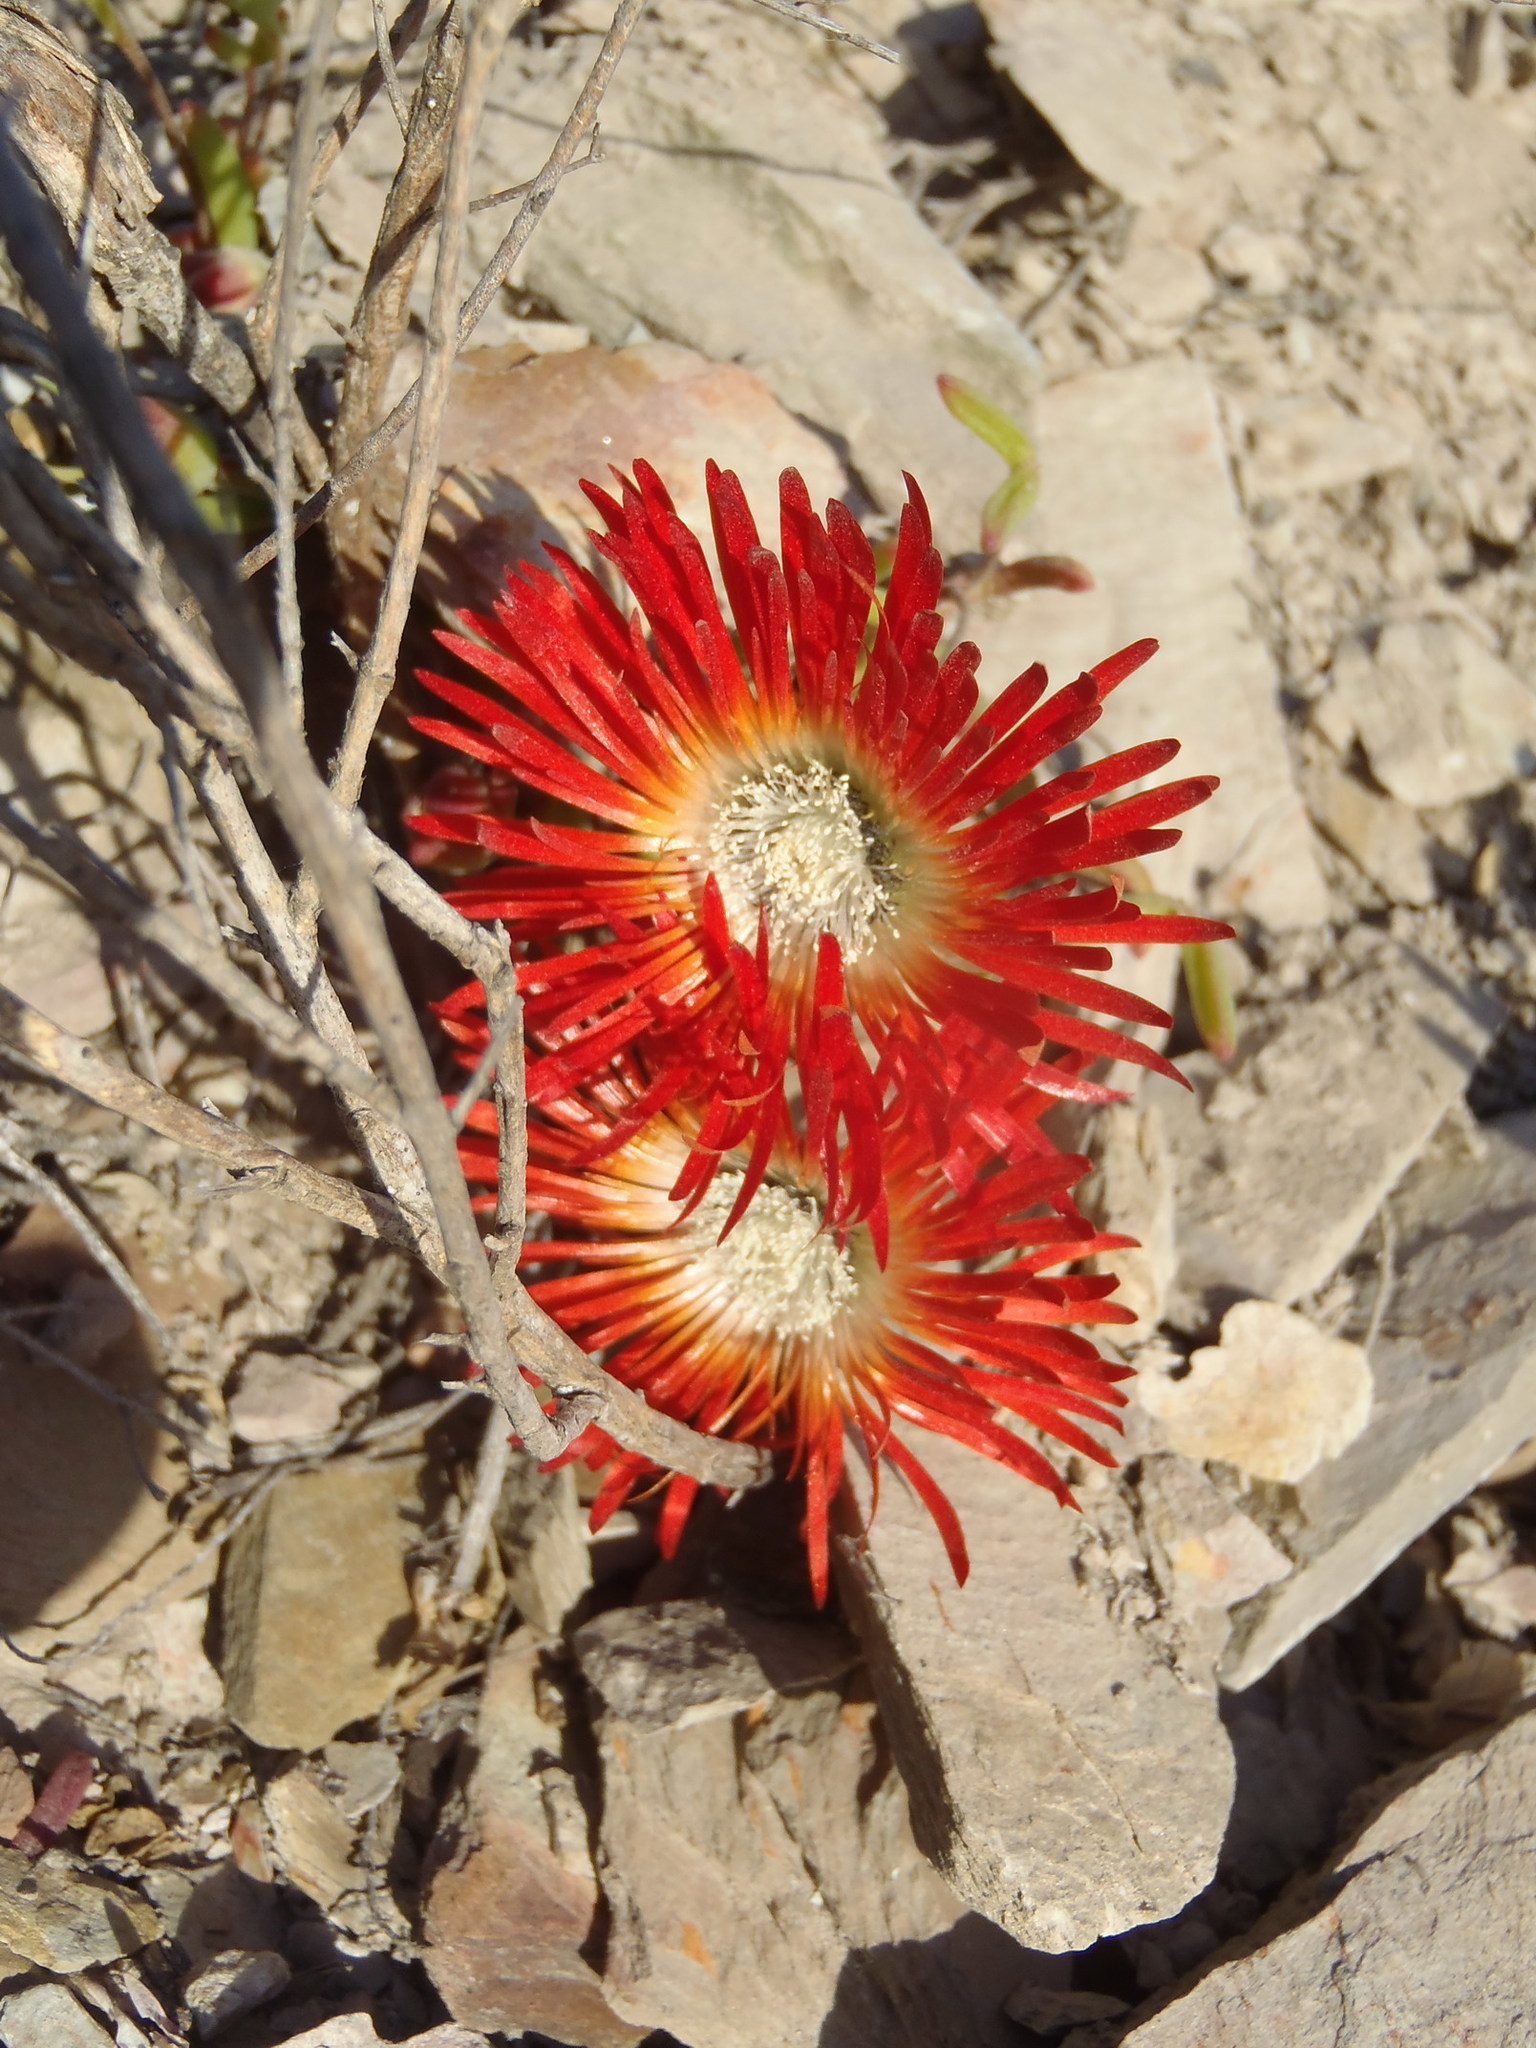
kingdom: Plantae
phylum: Tracheophyta
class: Magnoliopsida
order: Caryophyllales
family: Aizoaceae
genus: Drosanthemum
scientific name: Drosanthemum speciosum
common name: Royal dewflower
